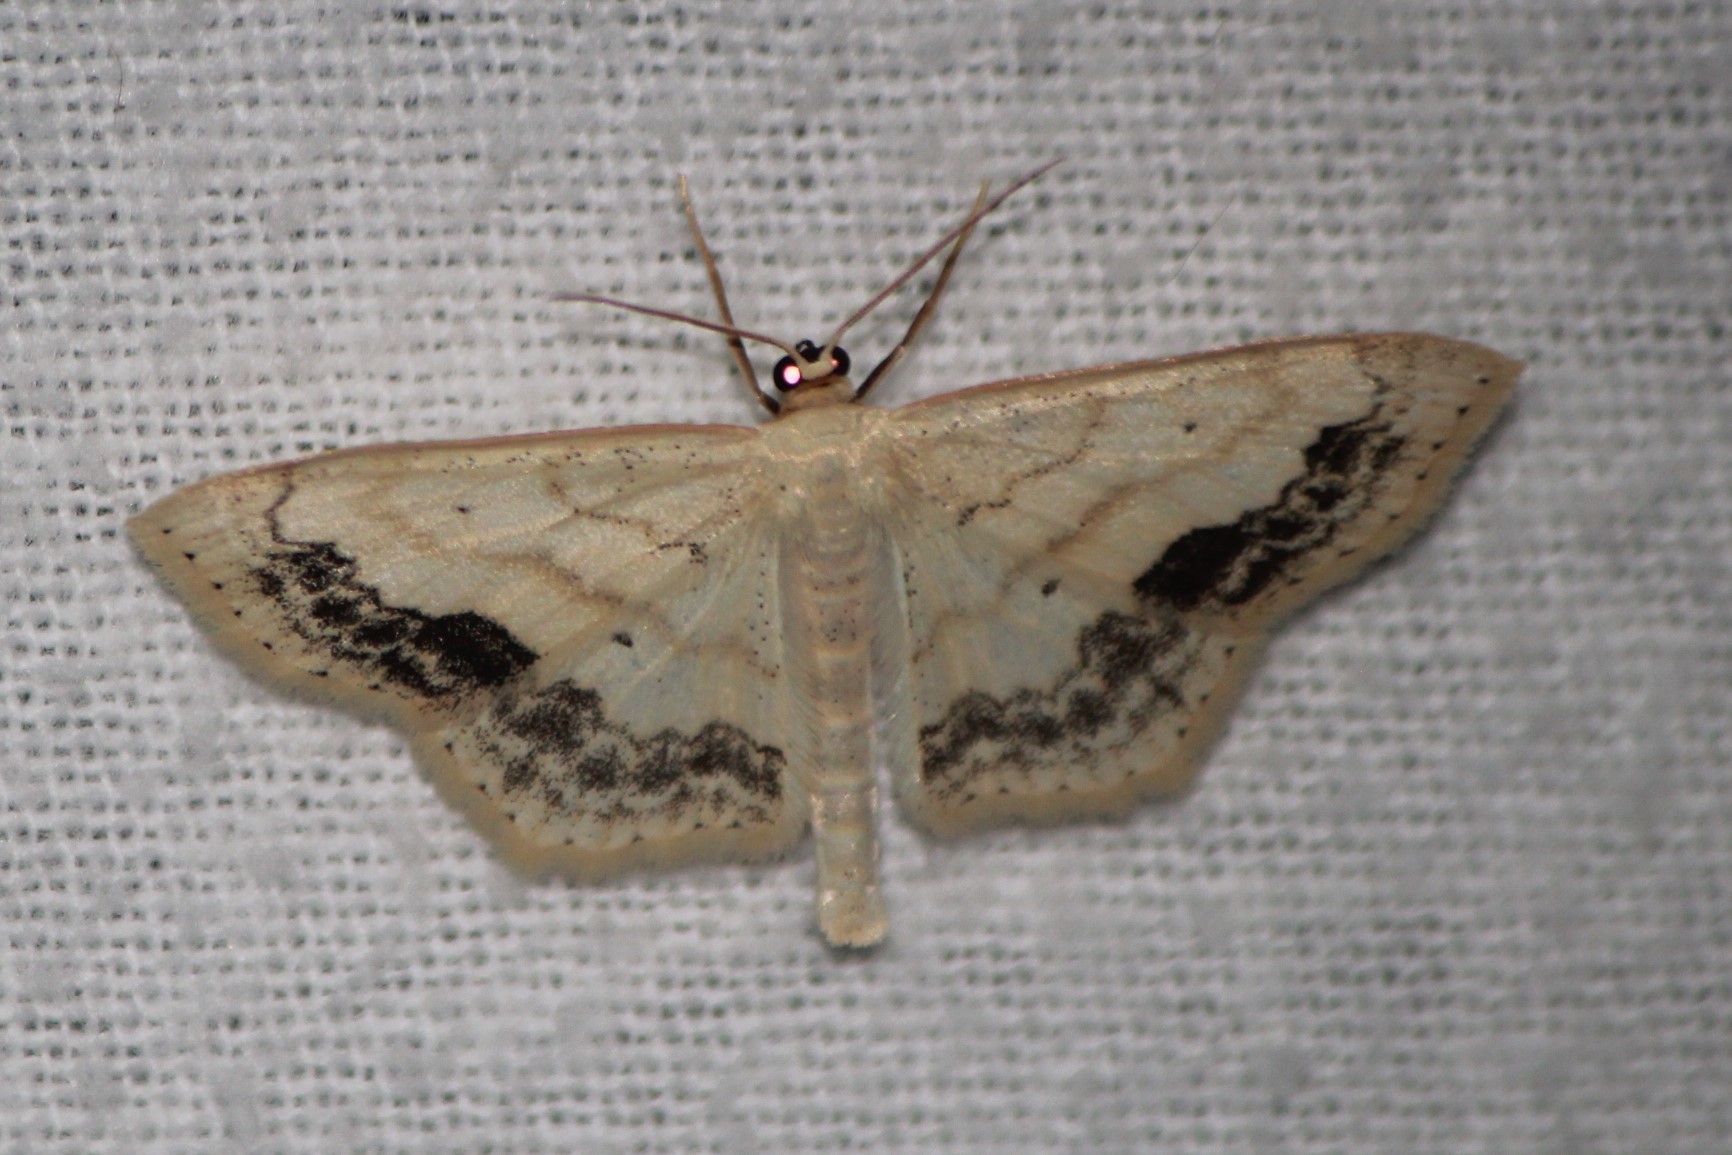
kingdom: Animalia
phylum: Arthropoda
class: Insecta
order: Lepidoptera
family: Geometridae
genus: Scopula
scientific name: Scopula limboundata
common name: Large lace border
